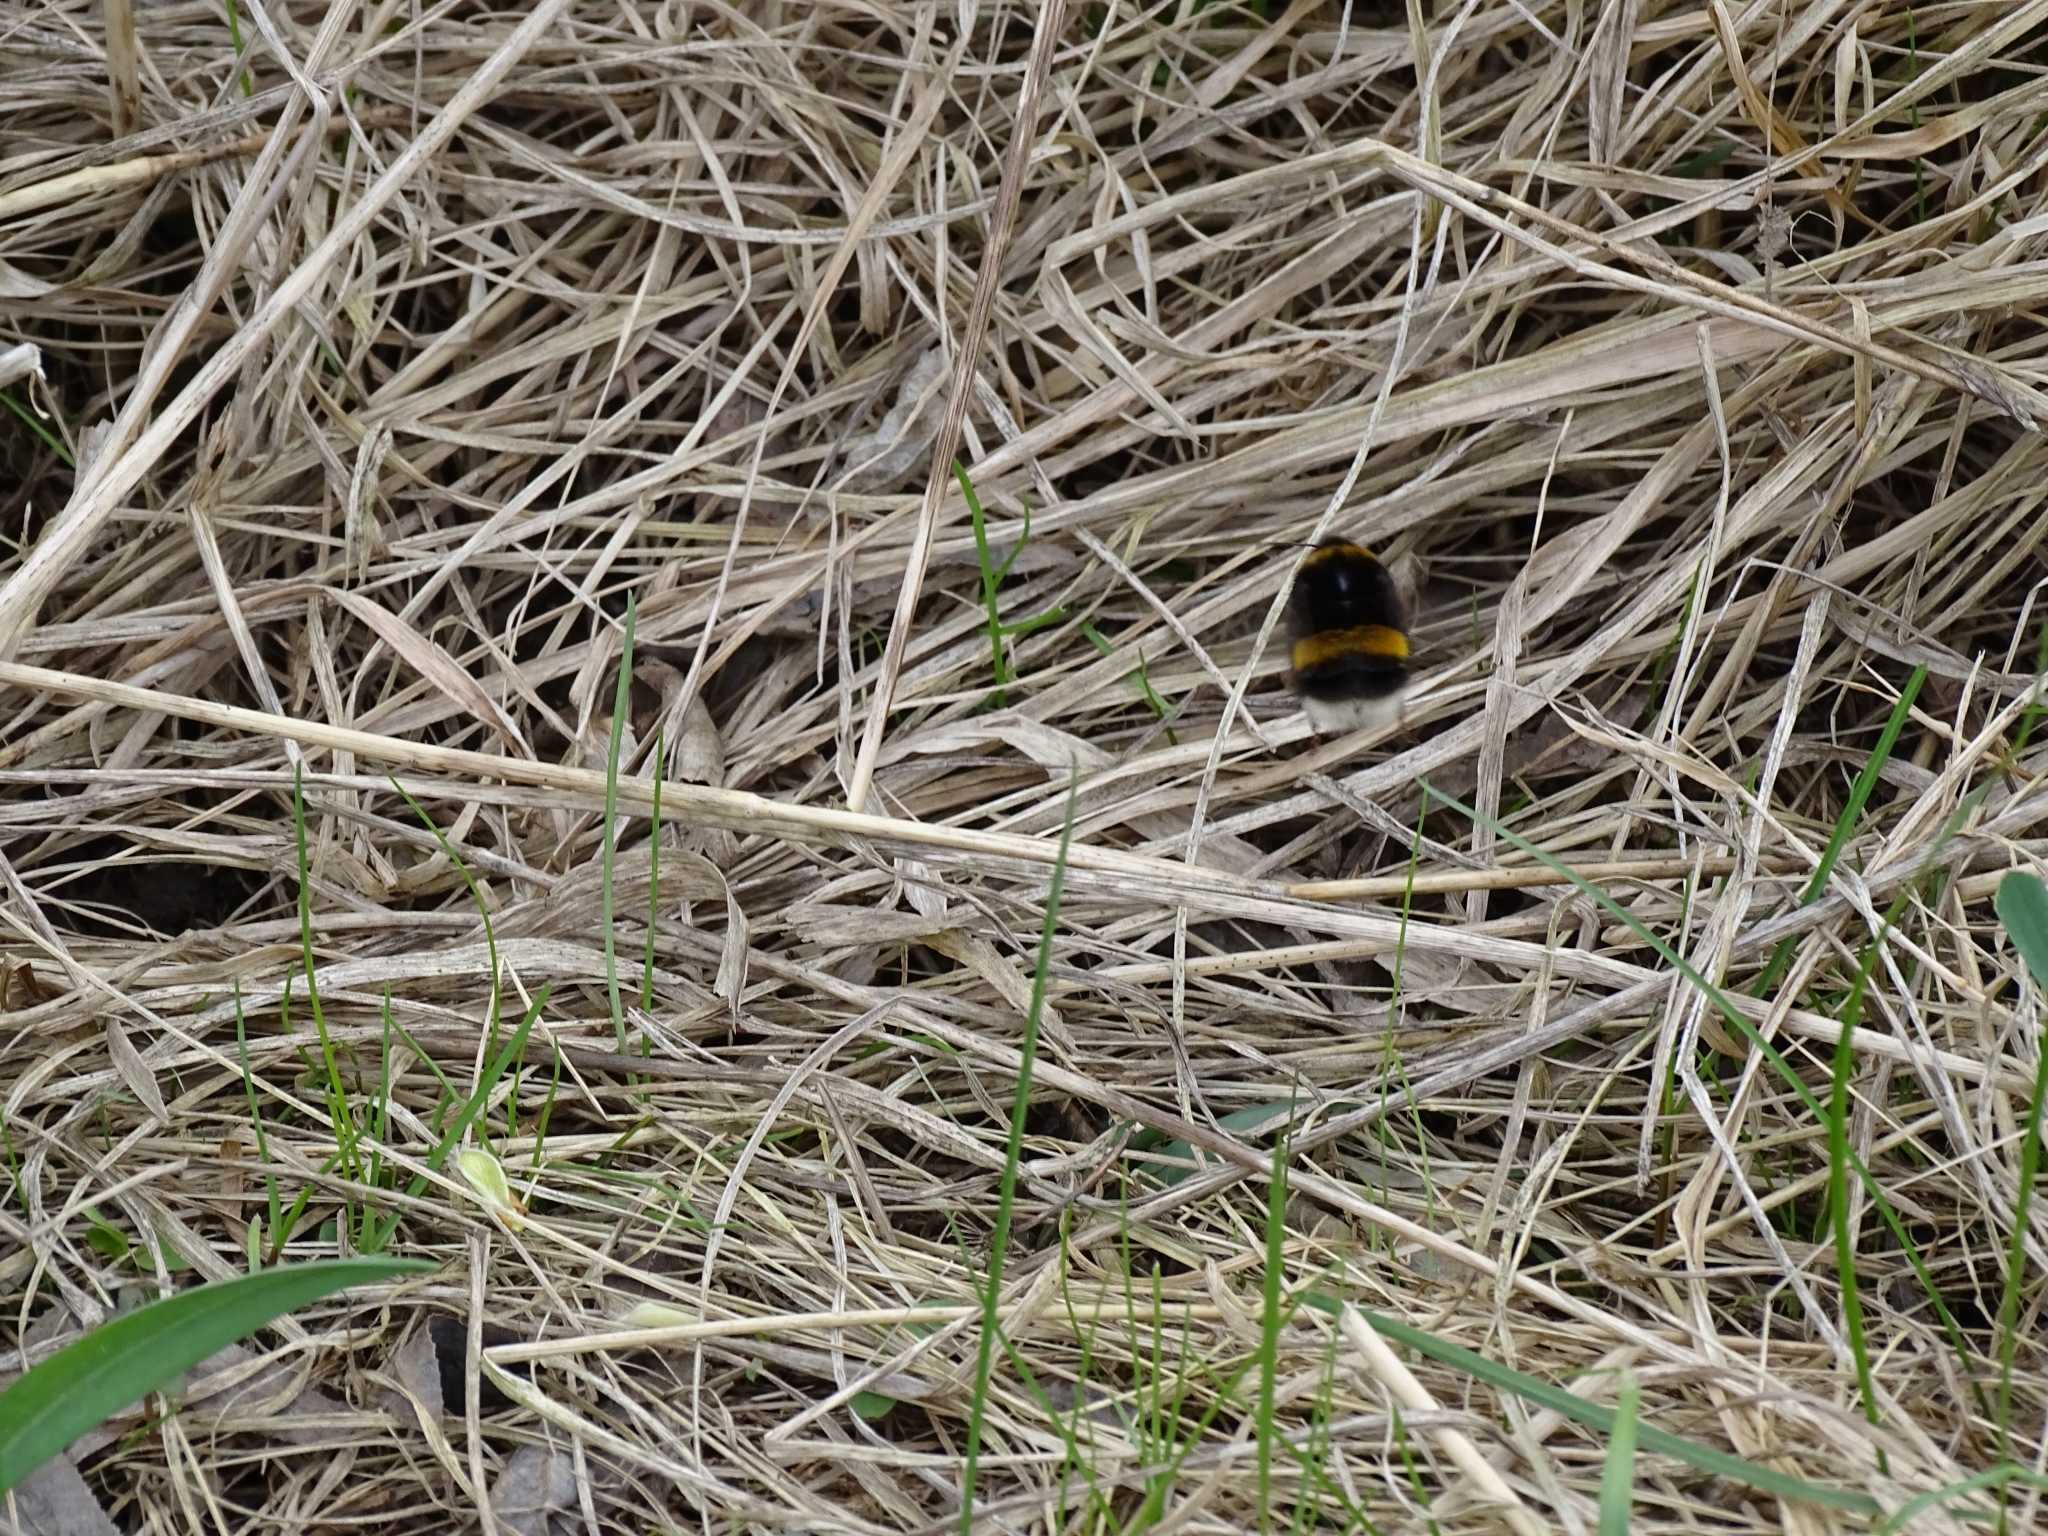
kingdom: Animalia
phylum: Arthropoda
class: Insecta
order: Hymenoptera
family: Apidae
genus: Bombus
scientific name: Bombus
